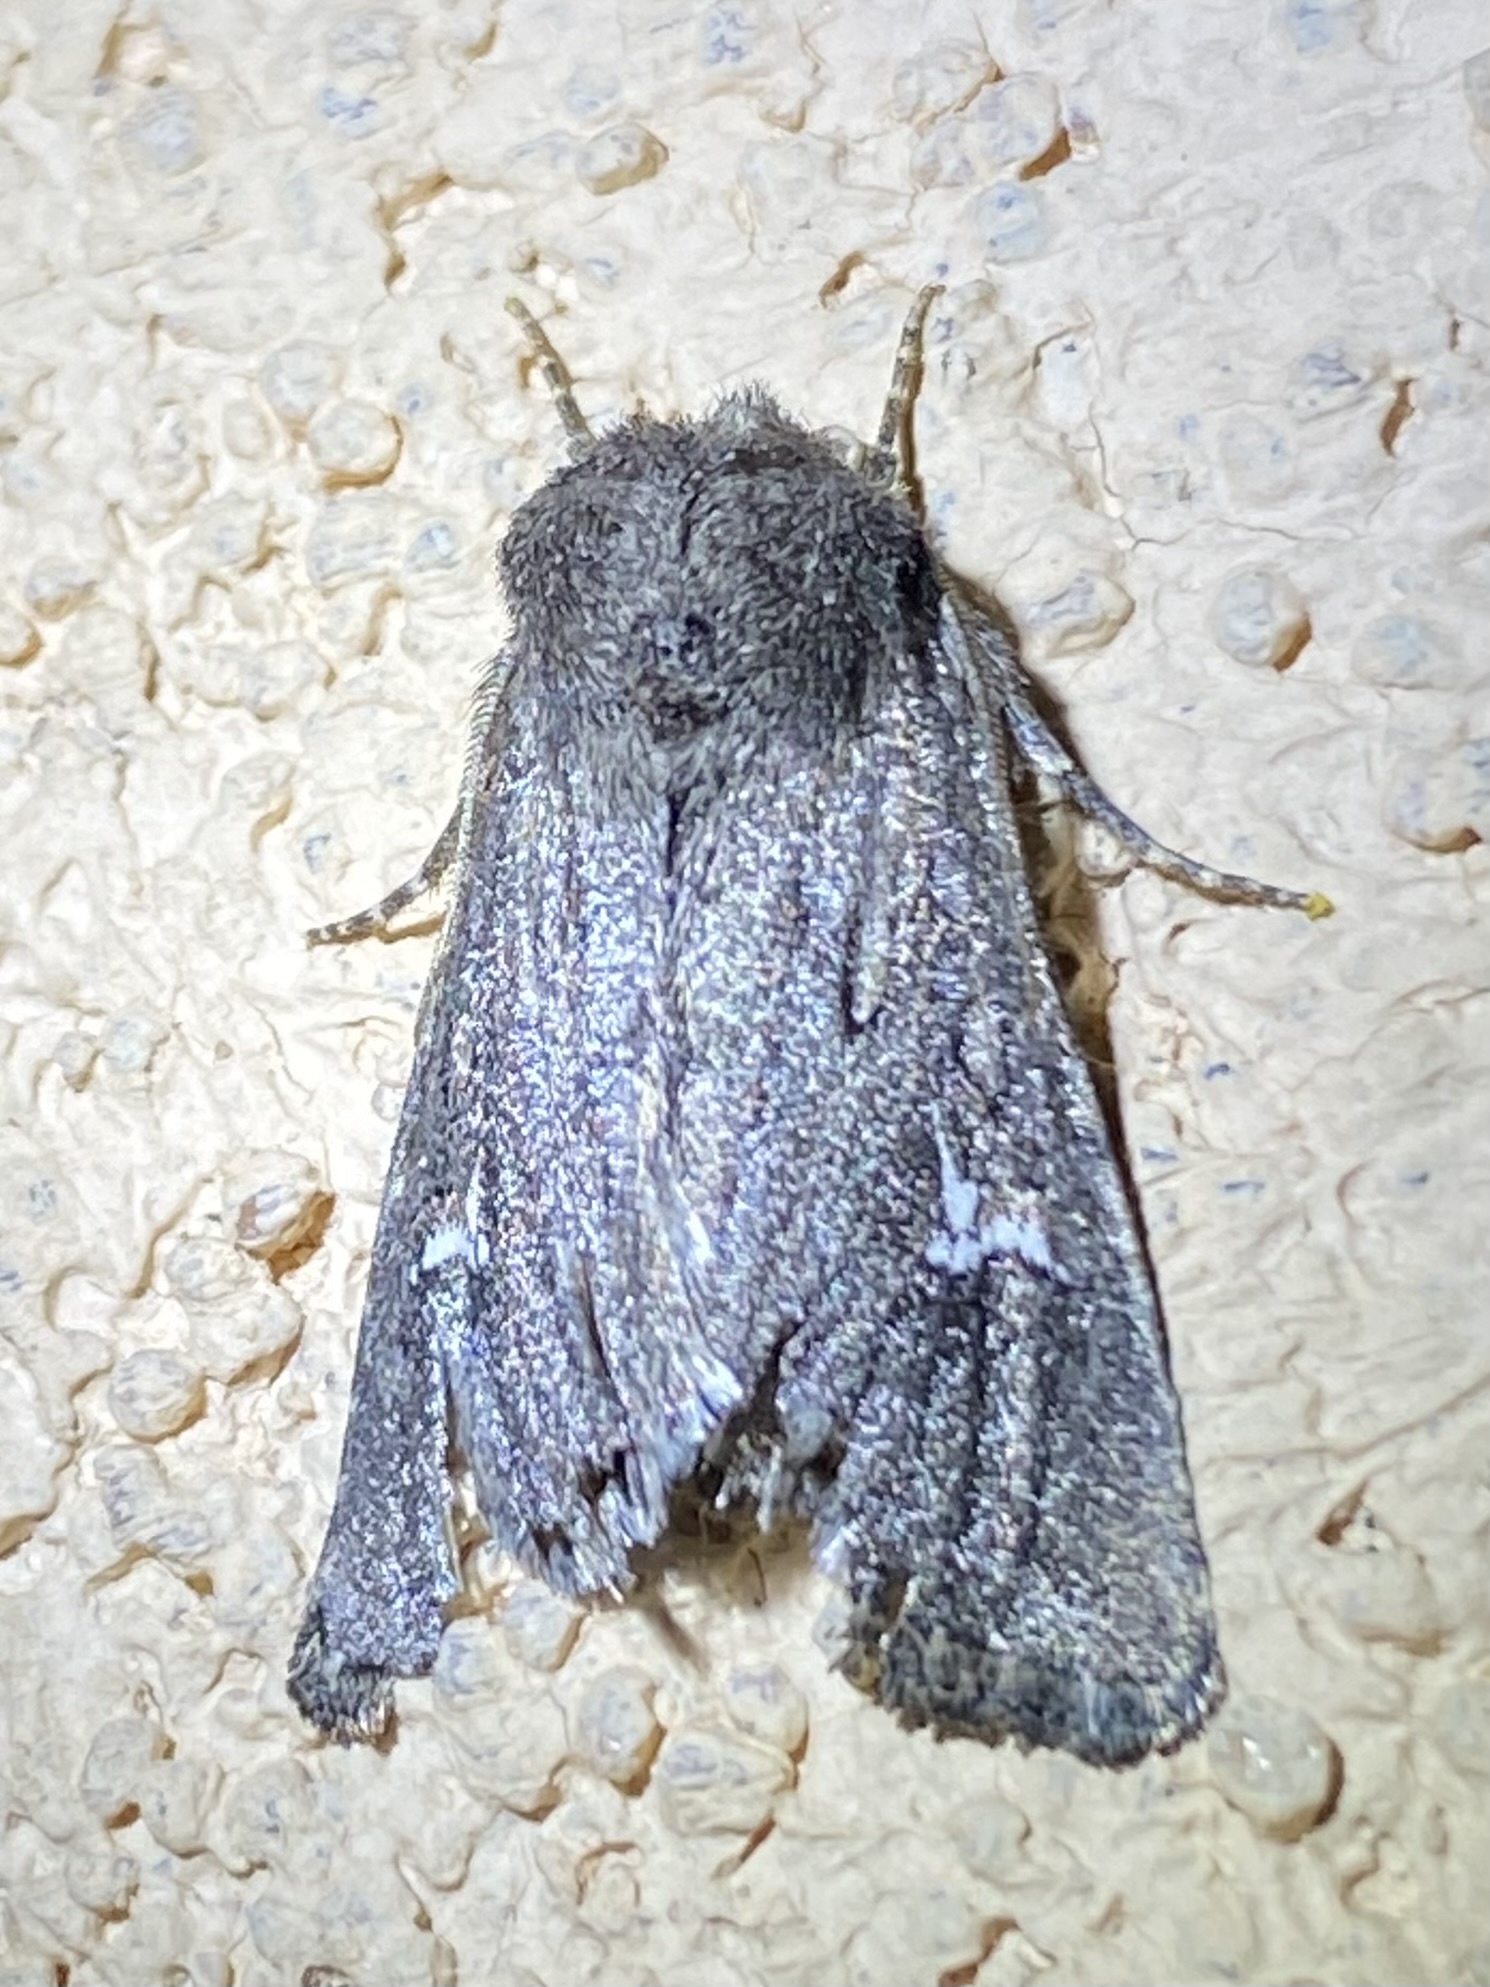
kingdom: Animalia
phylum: Arthropoda
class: Insecta
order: Lepidoptera
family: Noctuidae
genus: Tricholita
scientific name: Tricholita chipeta
